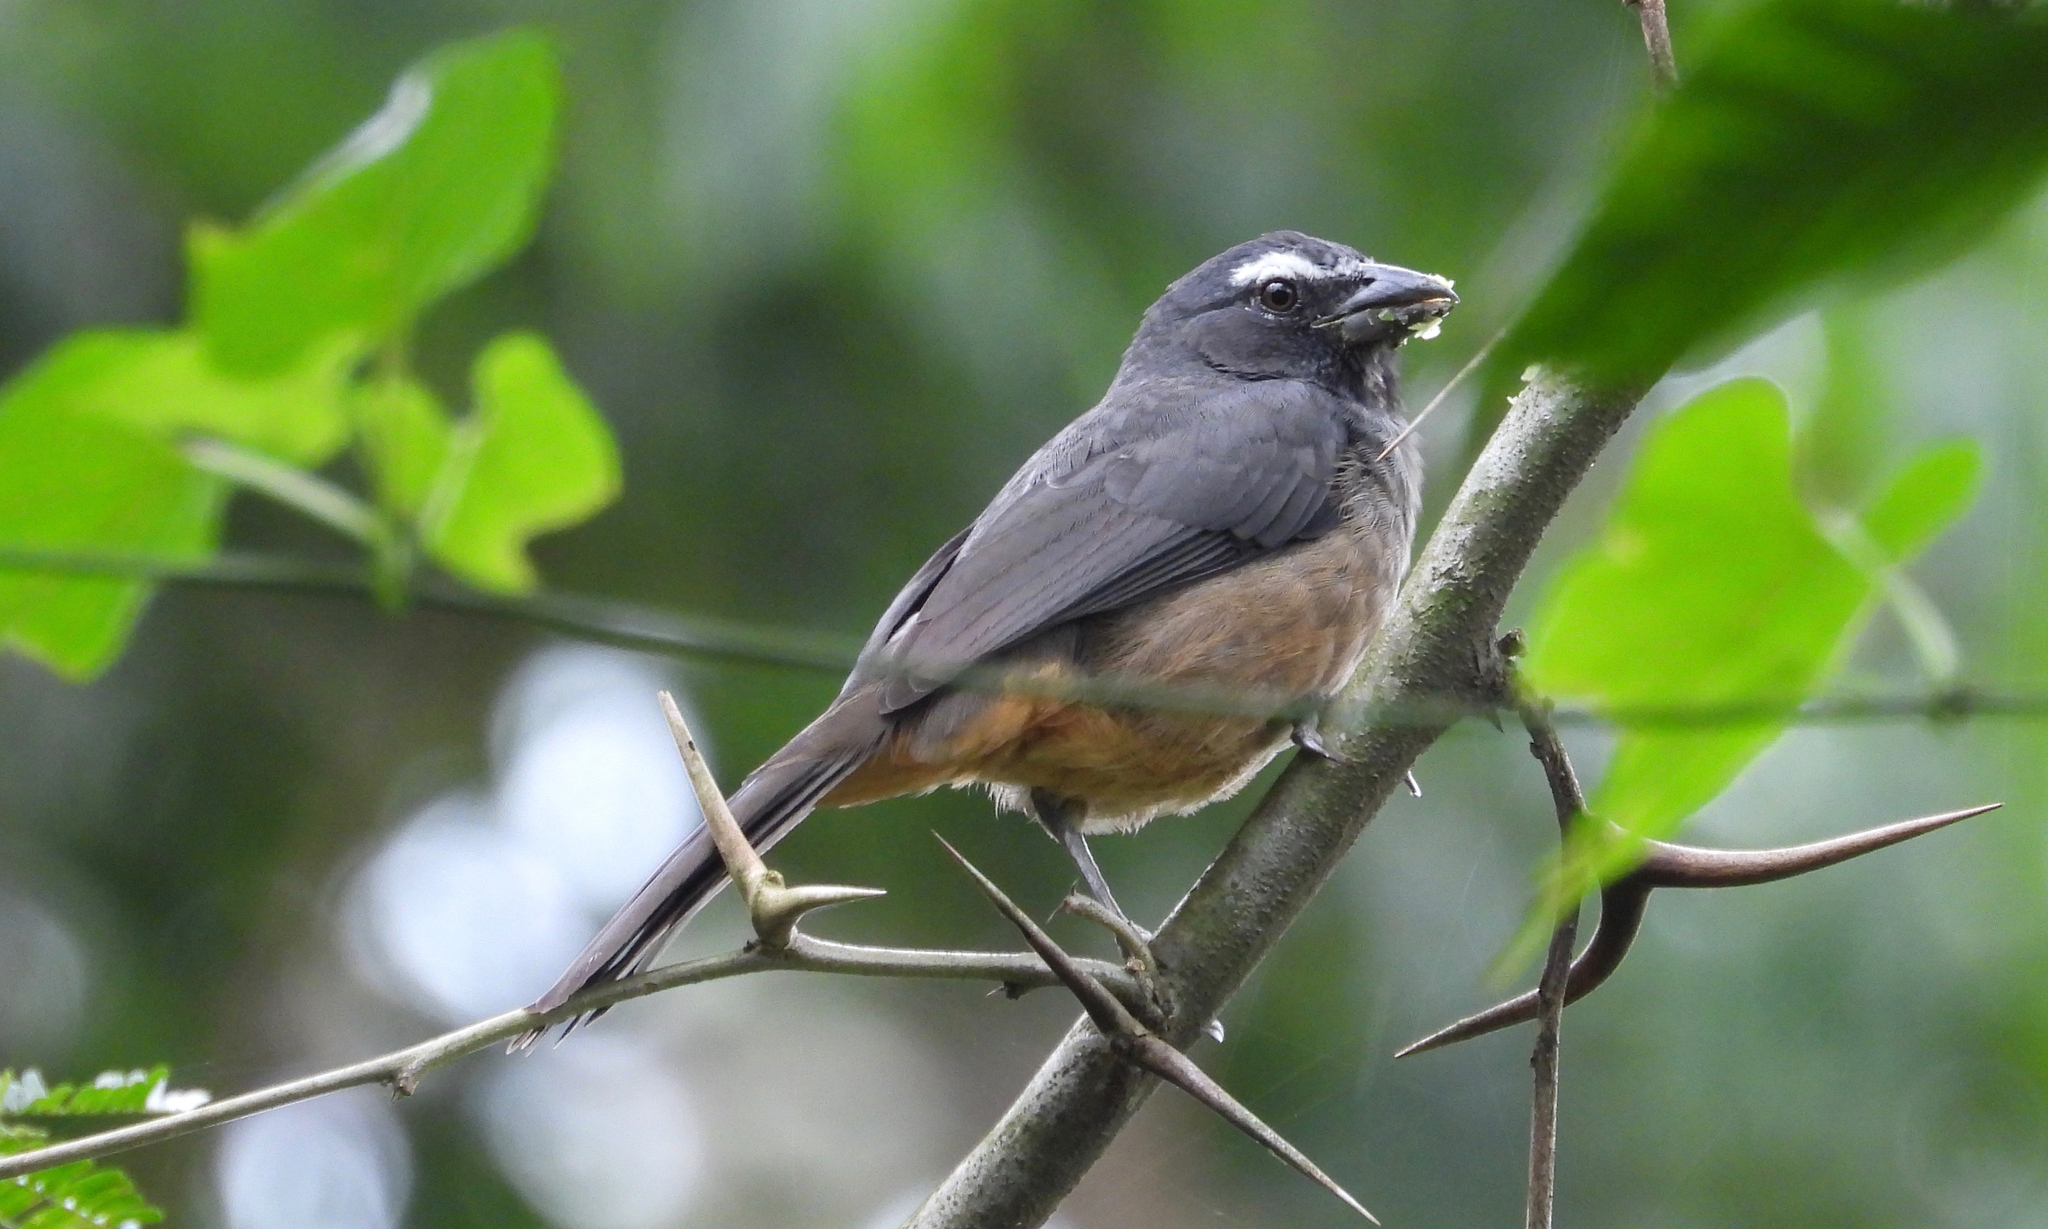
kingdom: Animalia
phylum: Chordata
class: Aves
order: Passeriformes
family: Thraupidae
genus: Saltator
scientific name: Saltator grandis
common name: Cinnamon-bellied saltator
